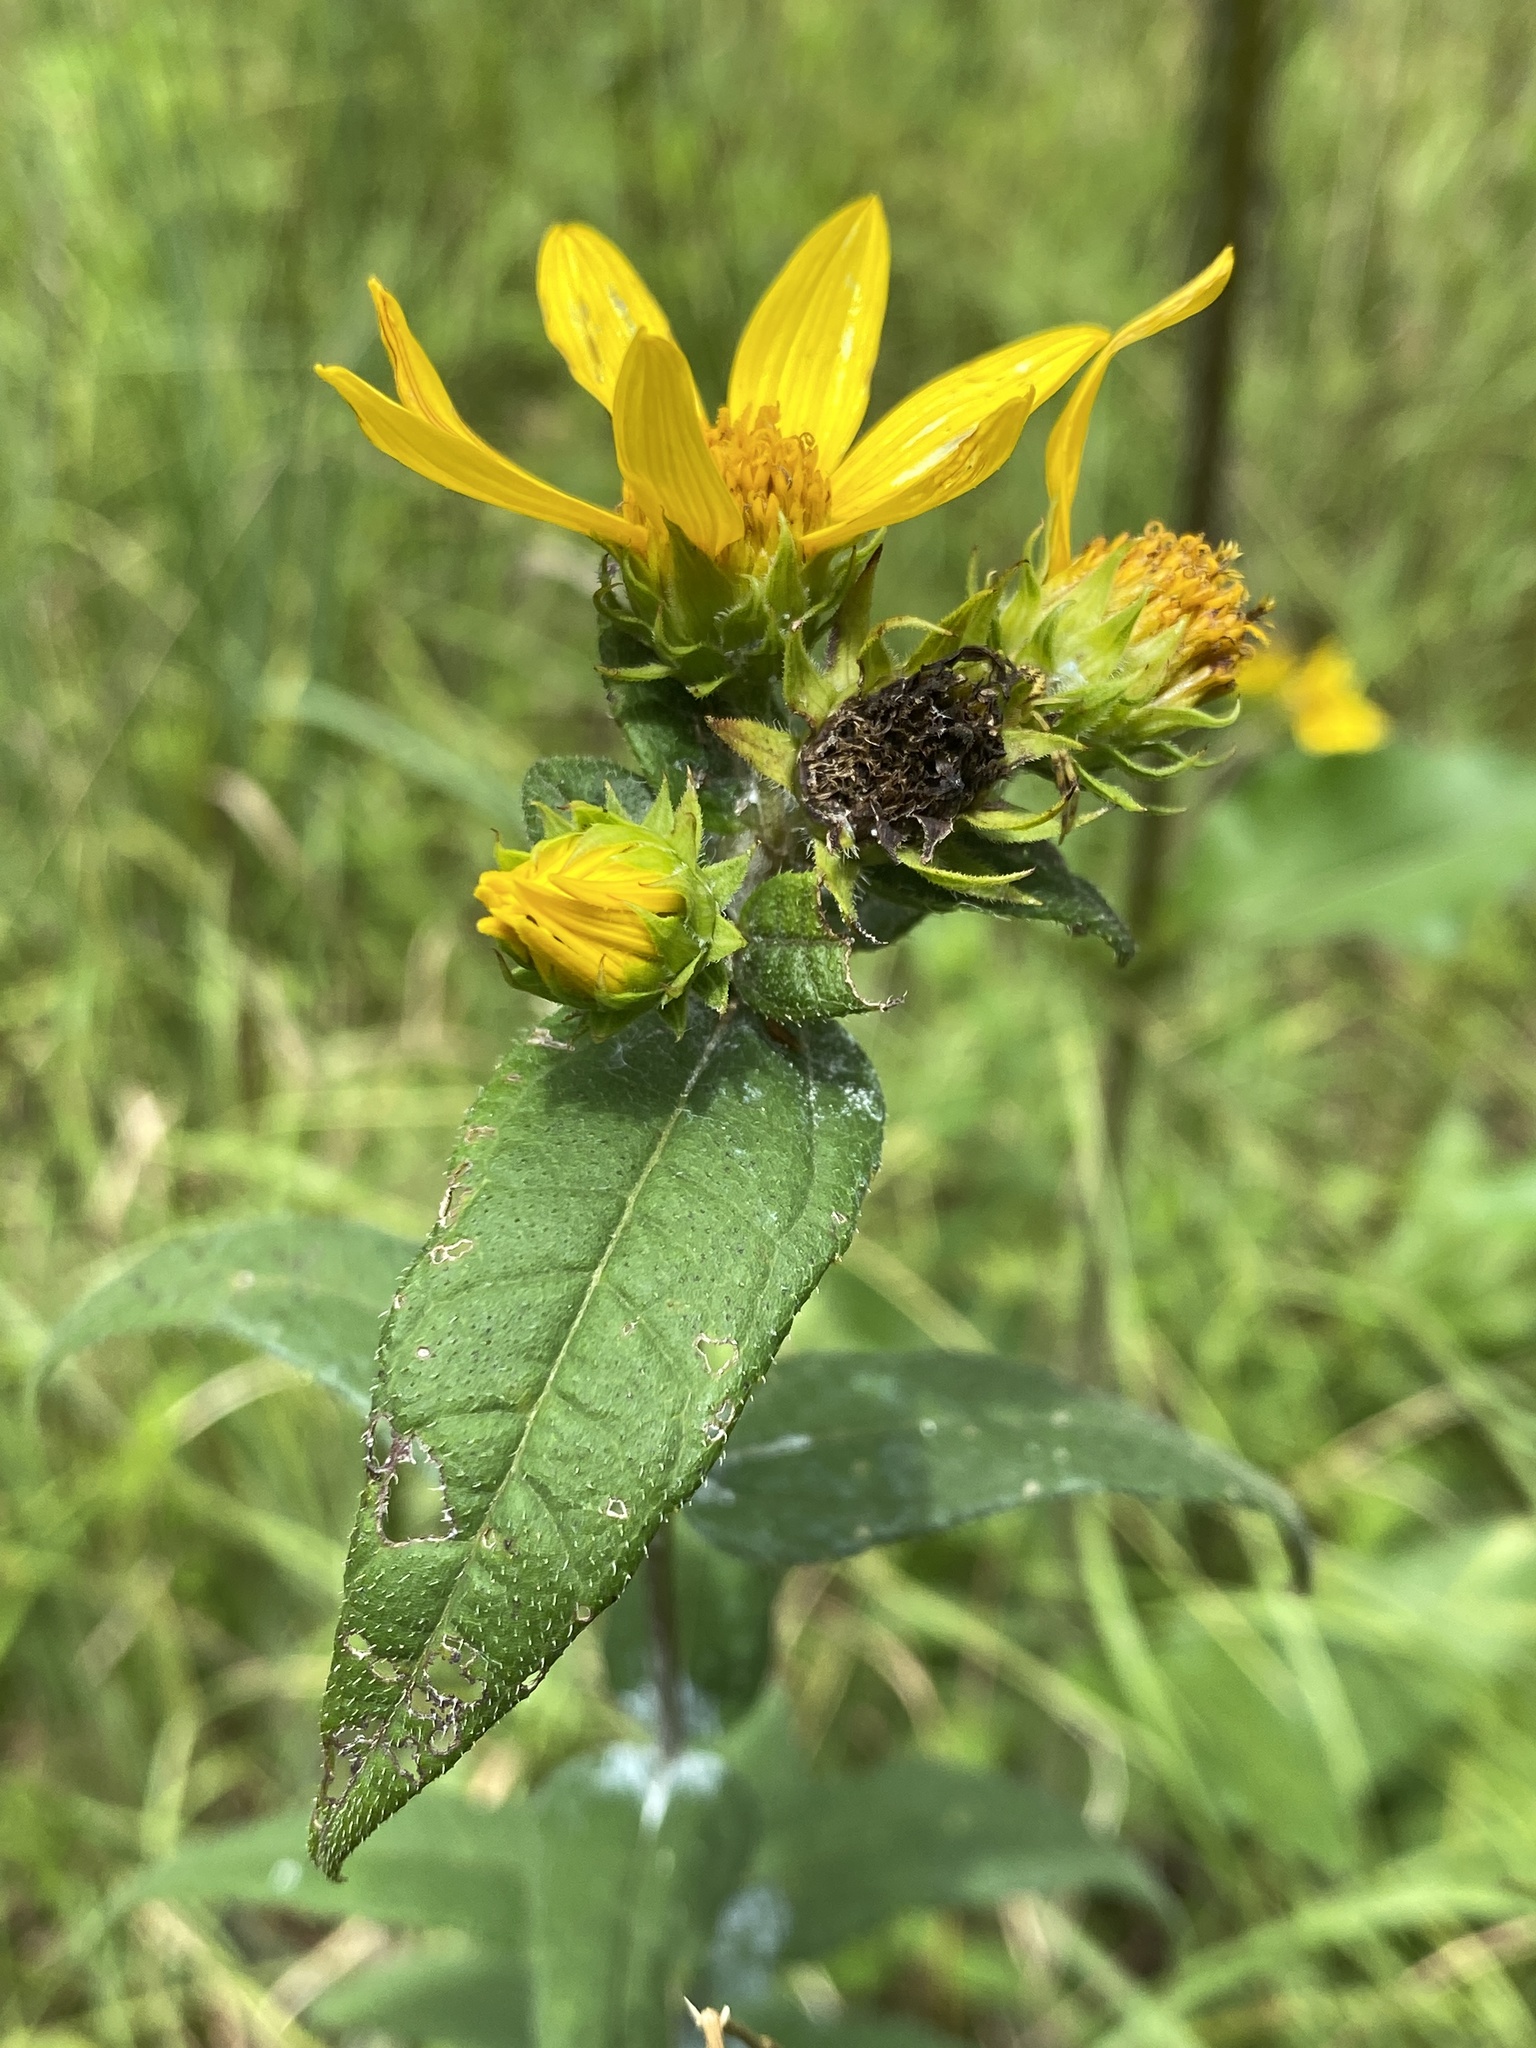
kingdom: Plantae
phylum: Tracheophyta
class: Magnoliopsida
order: Asterales
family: Asteraceae
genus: Helianthus
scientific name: Helianthus divaricatus
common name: Divergent sunflower
